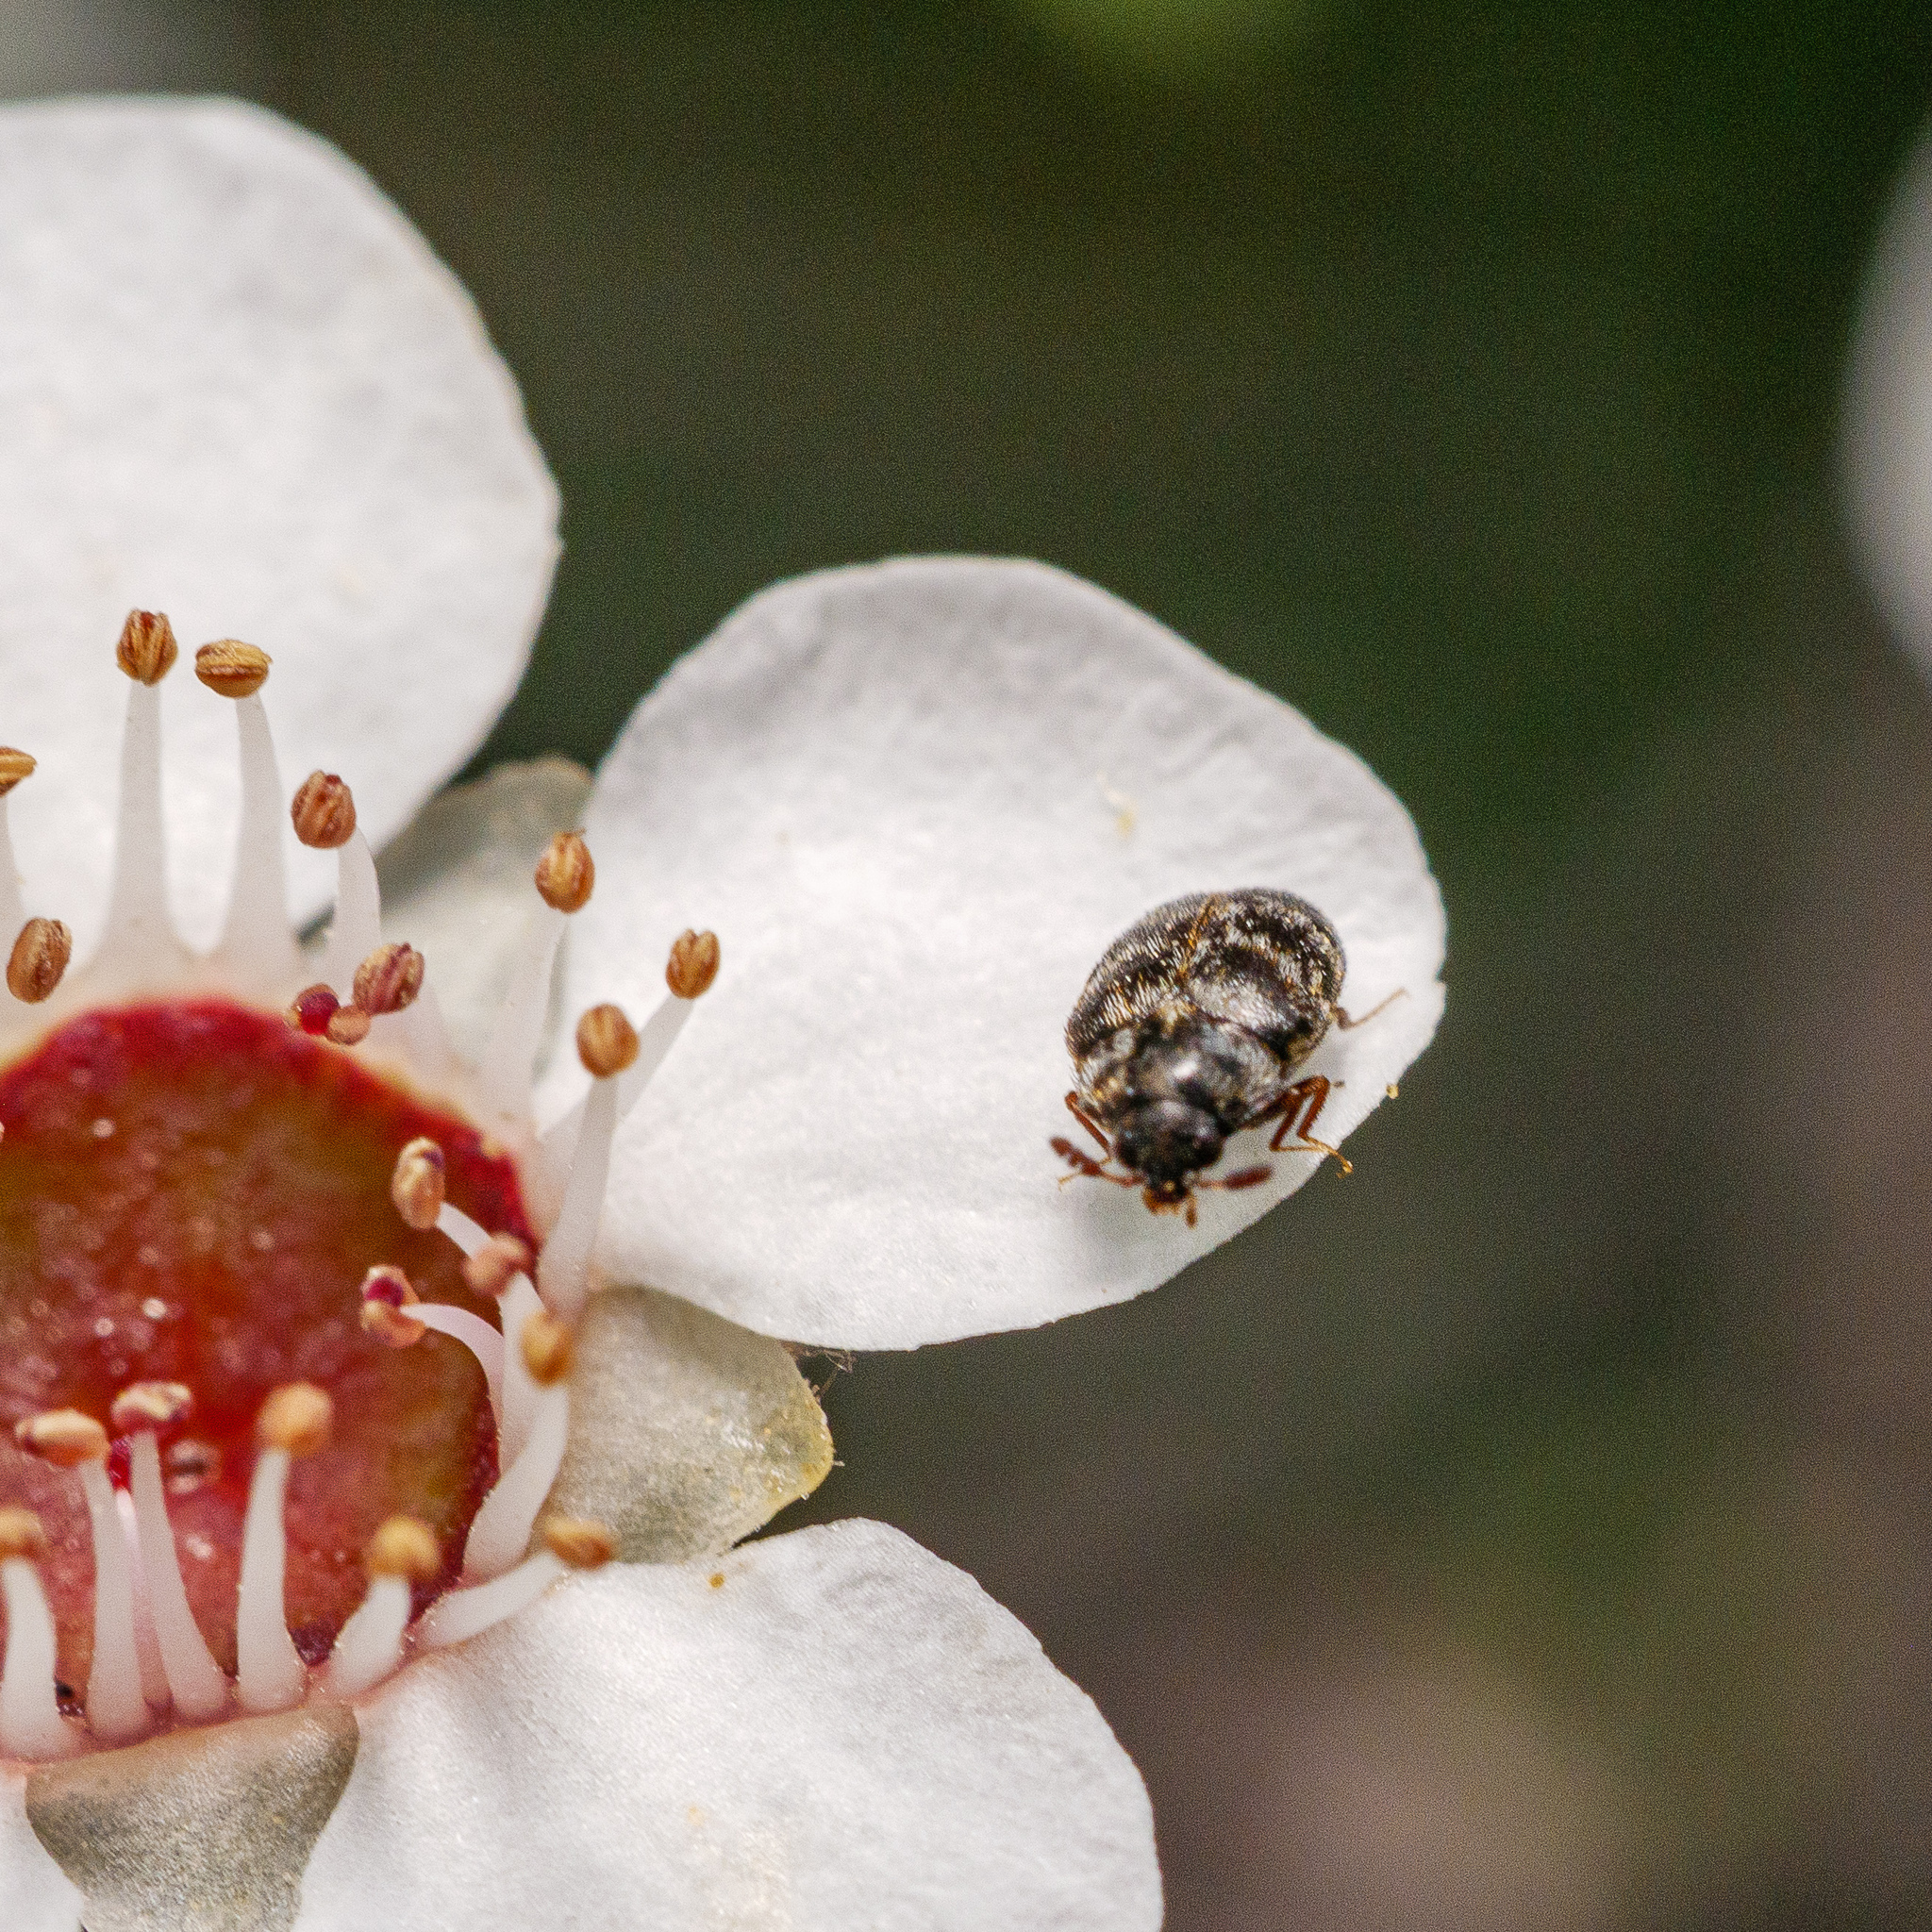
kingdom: Animalia
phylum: Arthropoda
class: Insecta
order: Coleoptera
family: Dermestidae
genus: Anthrenocerus
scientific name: Anthrenocerus australis
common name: Australian carpet beetle
